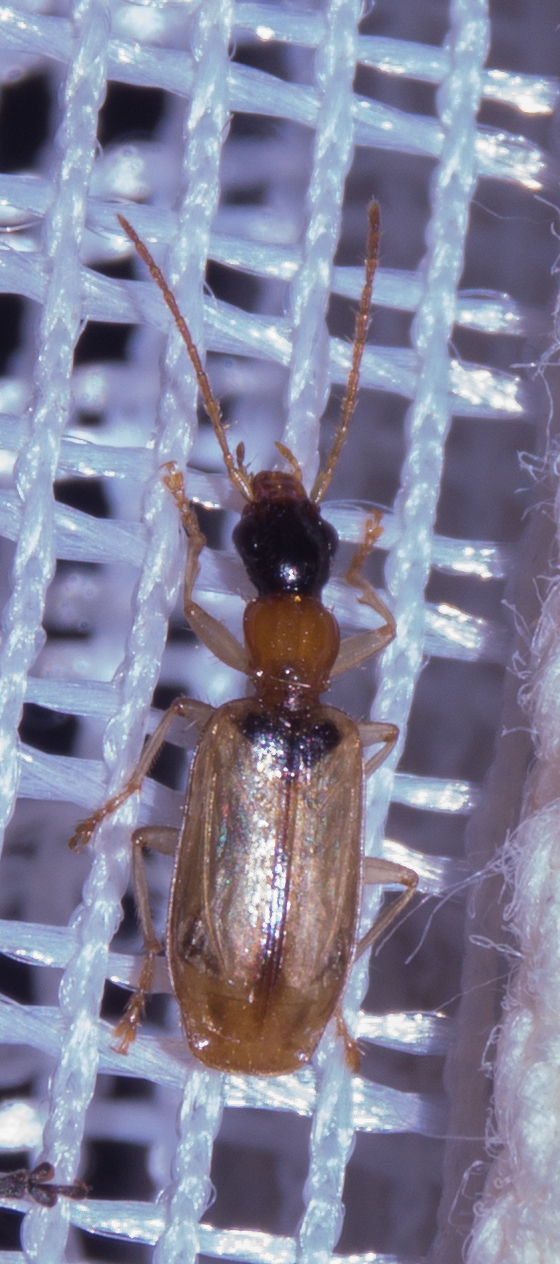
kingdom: Animalia
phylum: Arthropoda
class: Insecta
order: Coleoptera
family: Carabidae
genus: Demetrias
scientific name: Demetrias atricapillus
